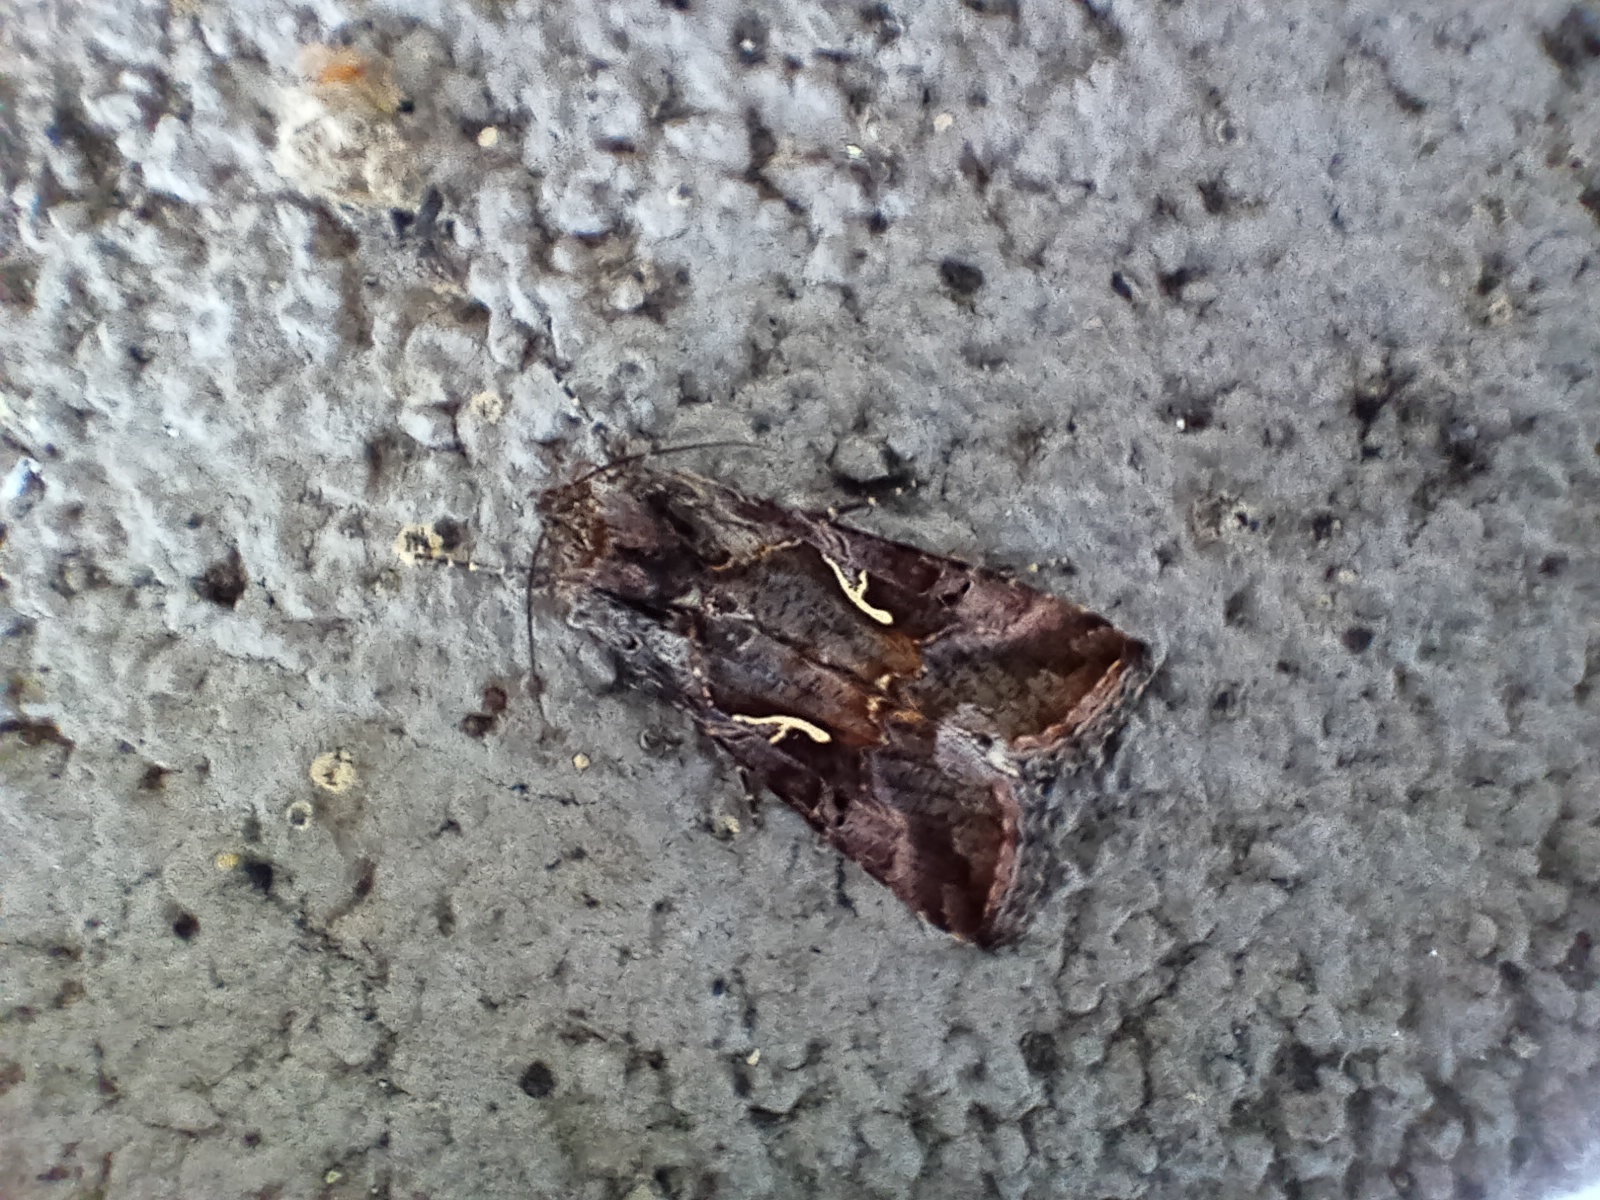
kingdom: Animalia
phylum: Arthropoda
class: Insecta
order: Lepidoptera
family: Noctuidae
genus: Autographa
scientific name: Autographa gamma
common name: Silver y
